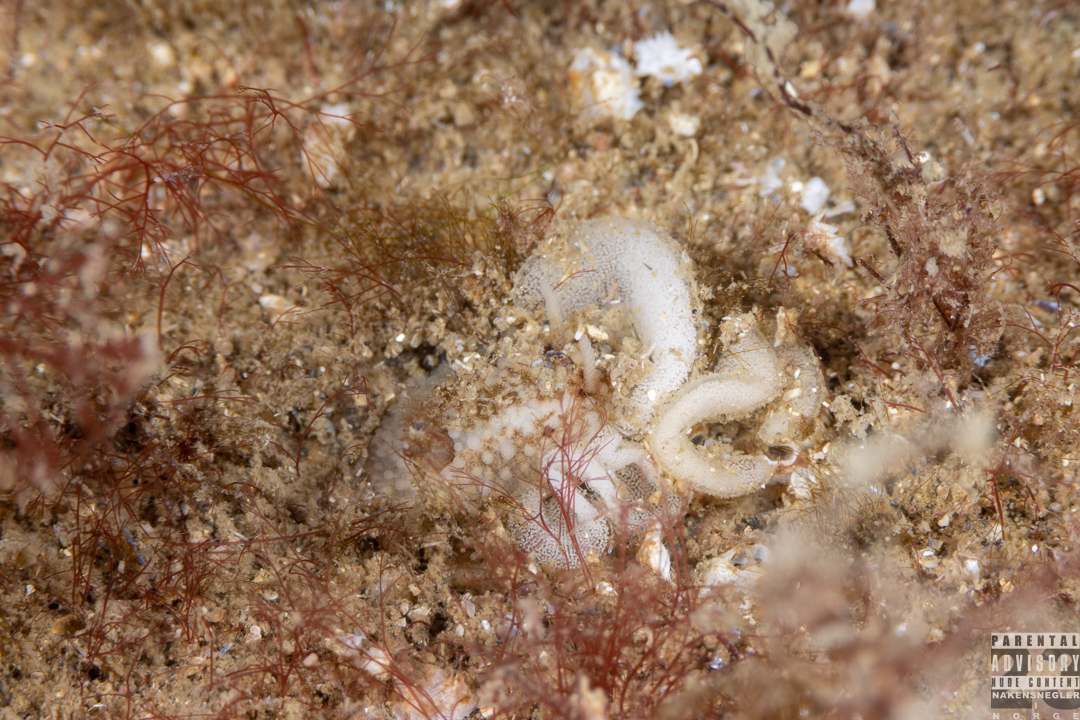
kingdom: Animalia
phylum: Mollusca
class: Gastropoda
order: Nudibranchia
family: Onchidorididae
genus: Onchidoris
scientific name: Onchidoris bilamellata
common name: Barnacle-eating onchidoris
